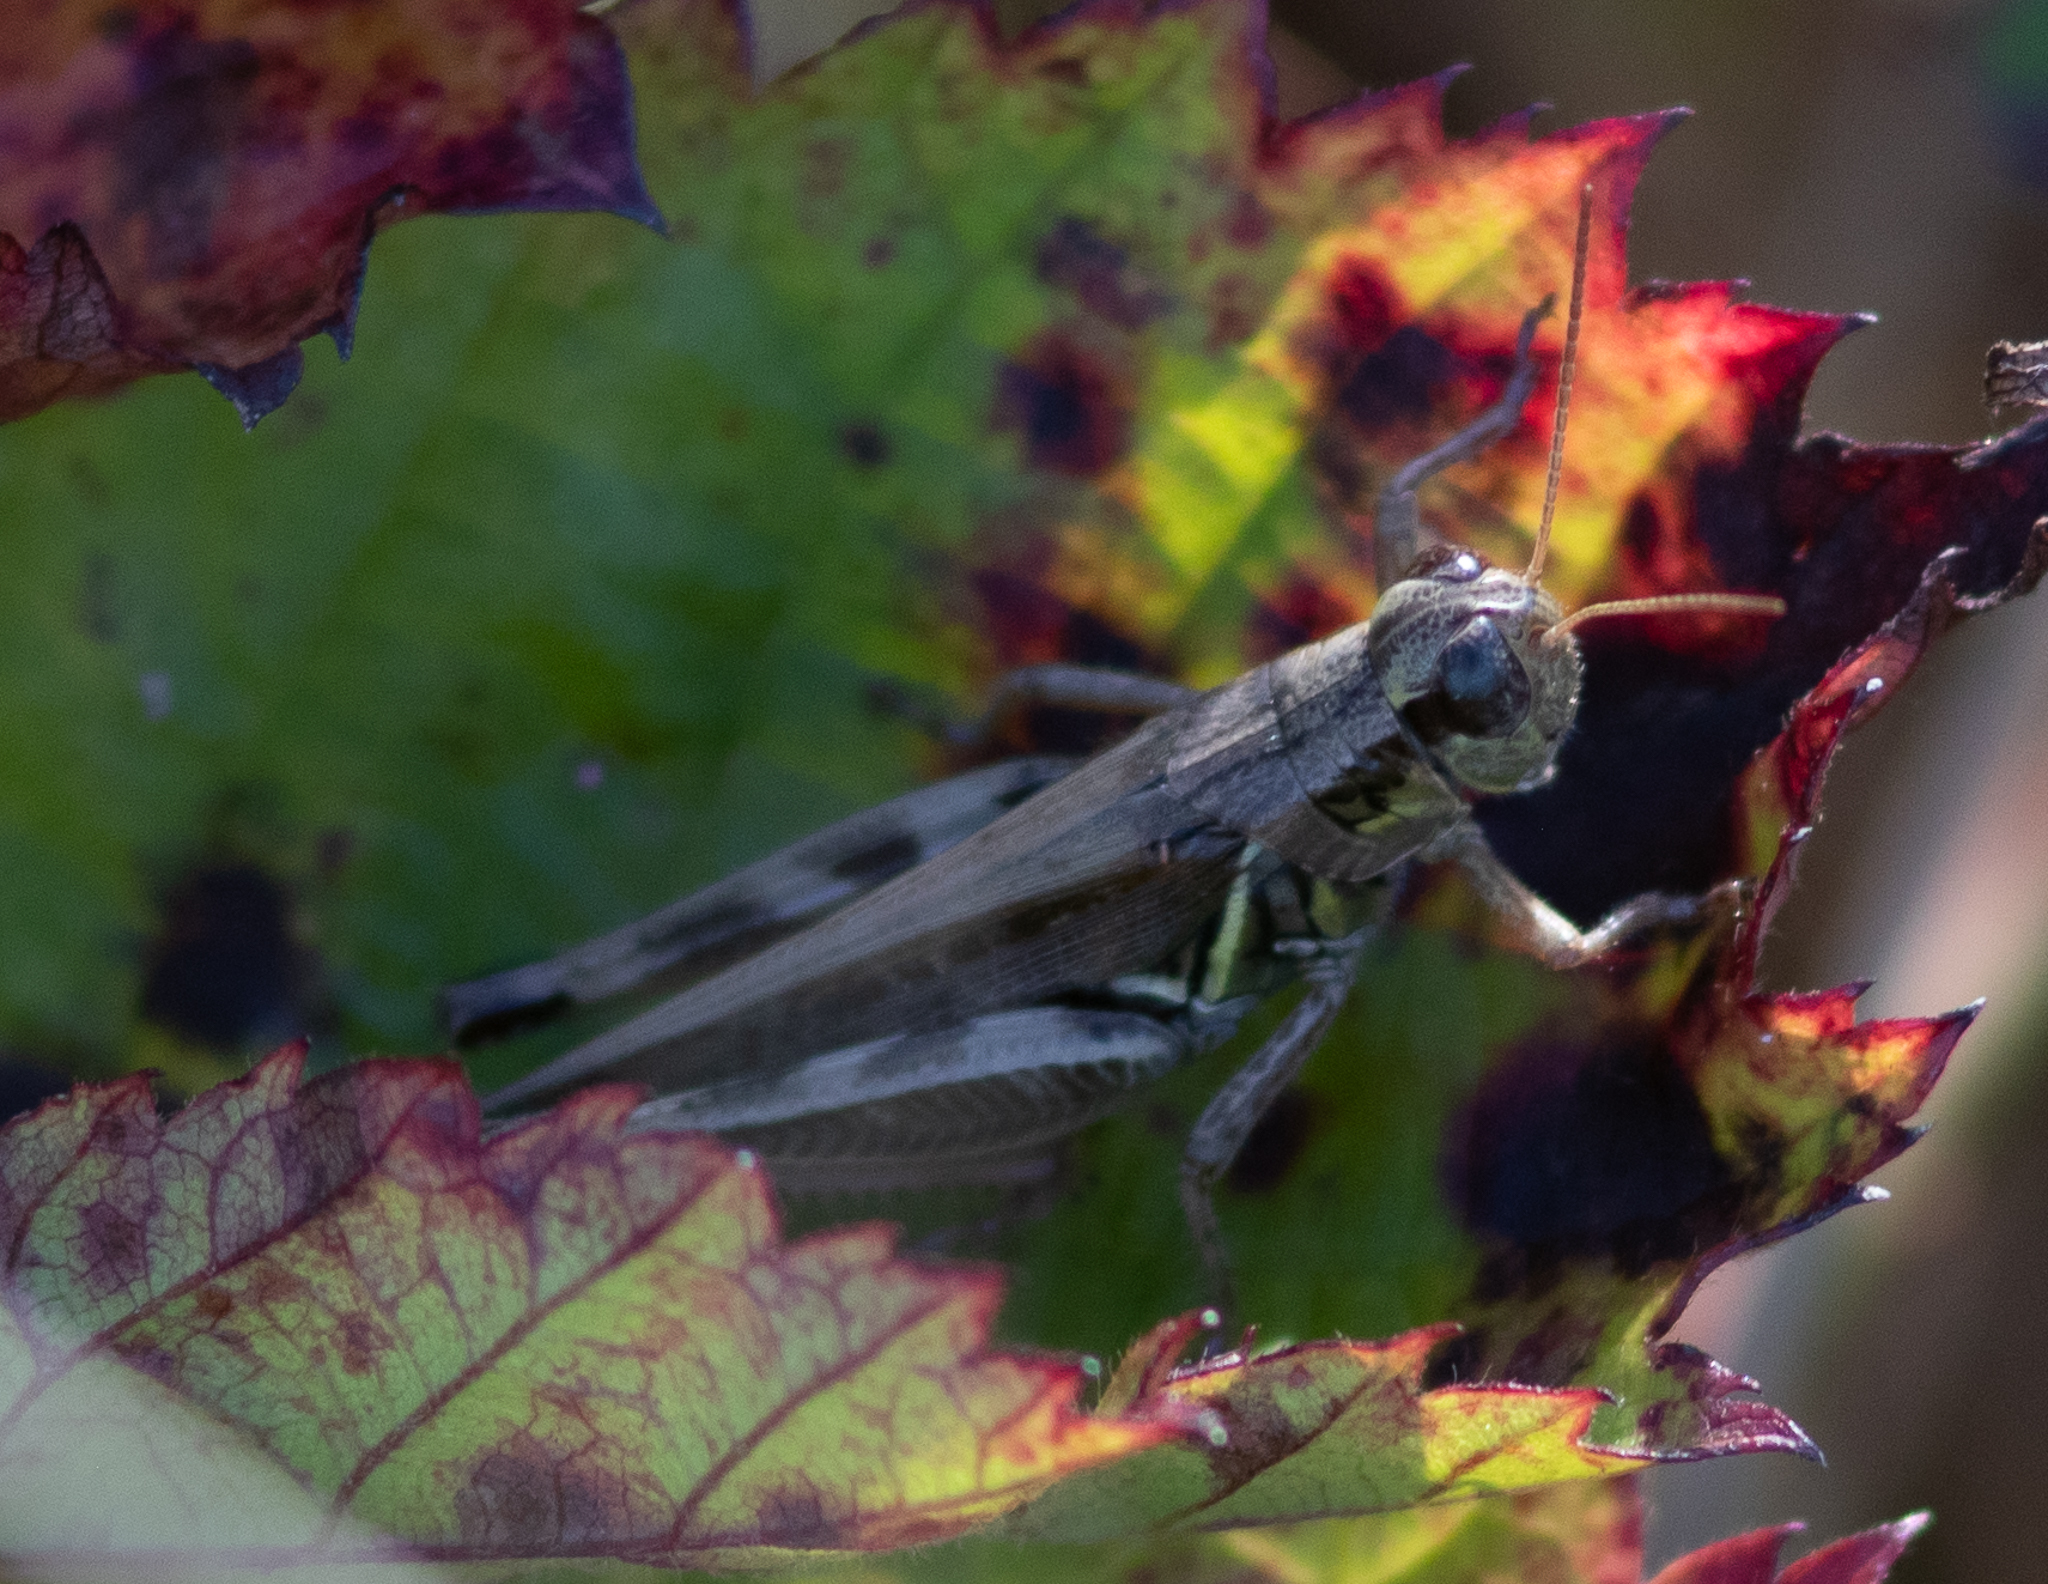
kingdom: Animalia
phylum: Arthropoda
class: Insecta
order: Orthoptera
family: Acrididae
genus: Melanoplus
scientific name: Melanoplus
